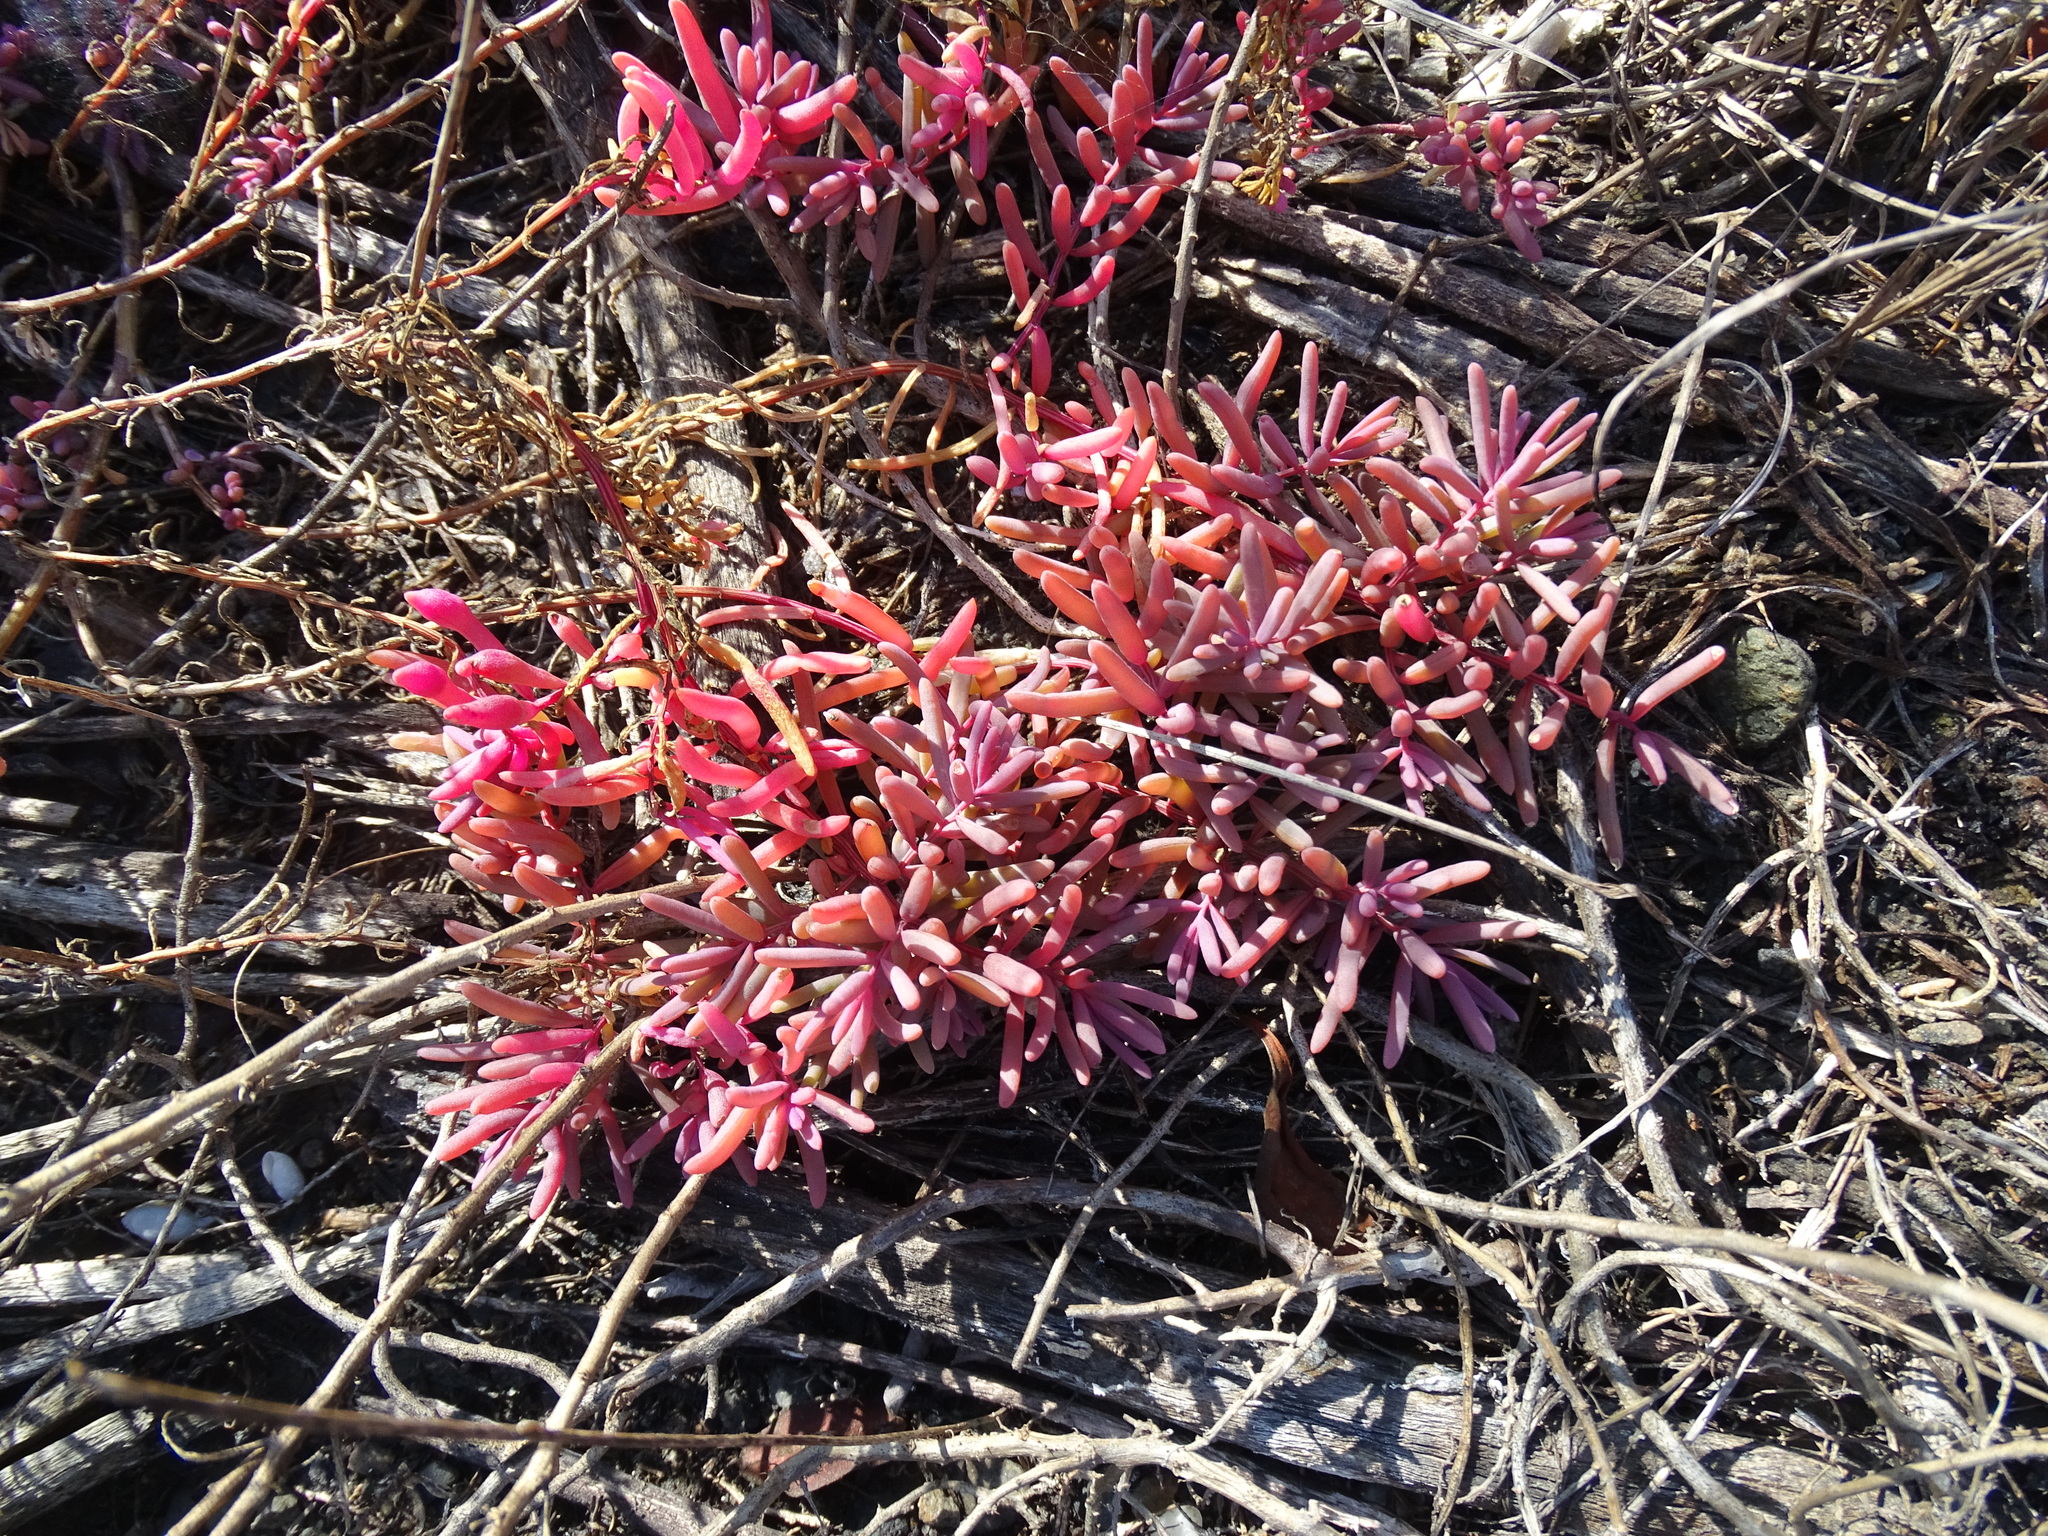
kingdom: Plantae
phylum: Tracheophyta
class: Magnoliopsida
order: Caryophyllales
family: Amaranthaceae
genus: Suaeda
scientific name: Suaeda maritima
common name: Annual sea-blite
